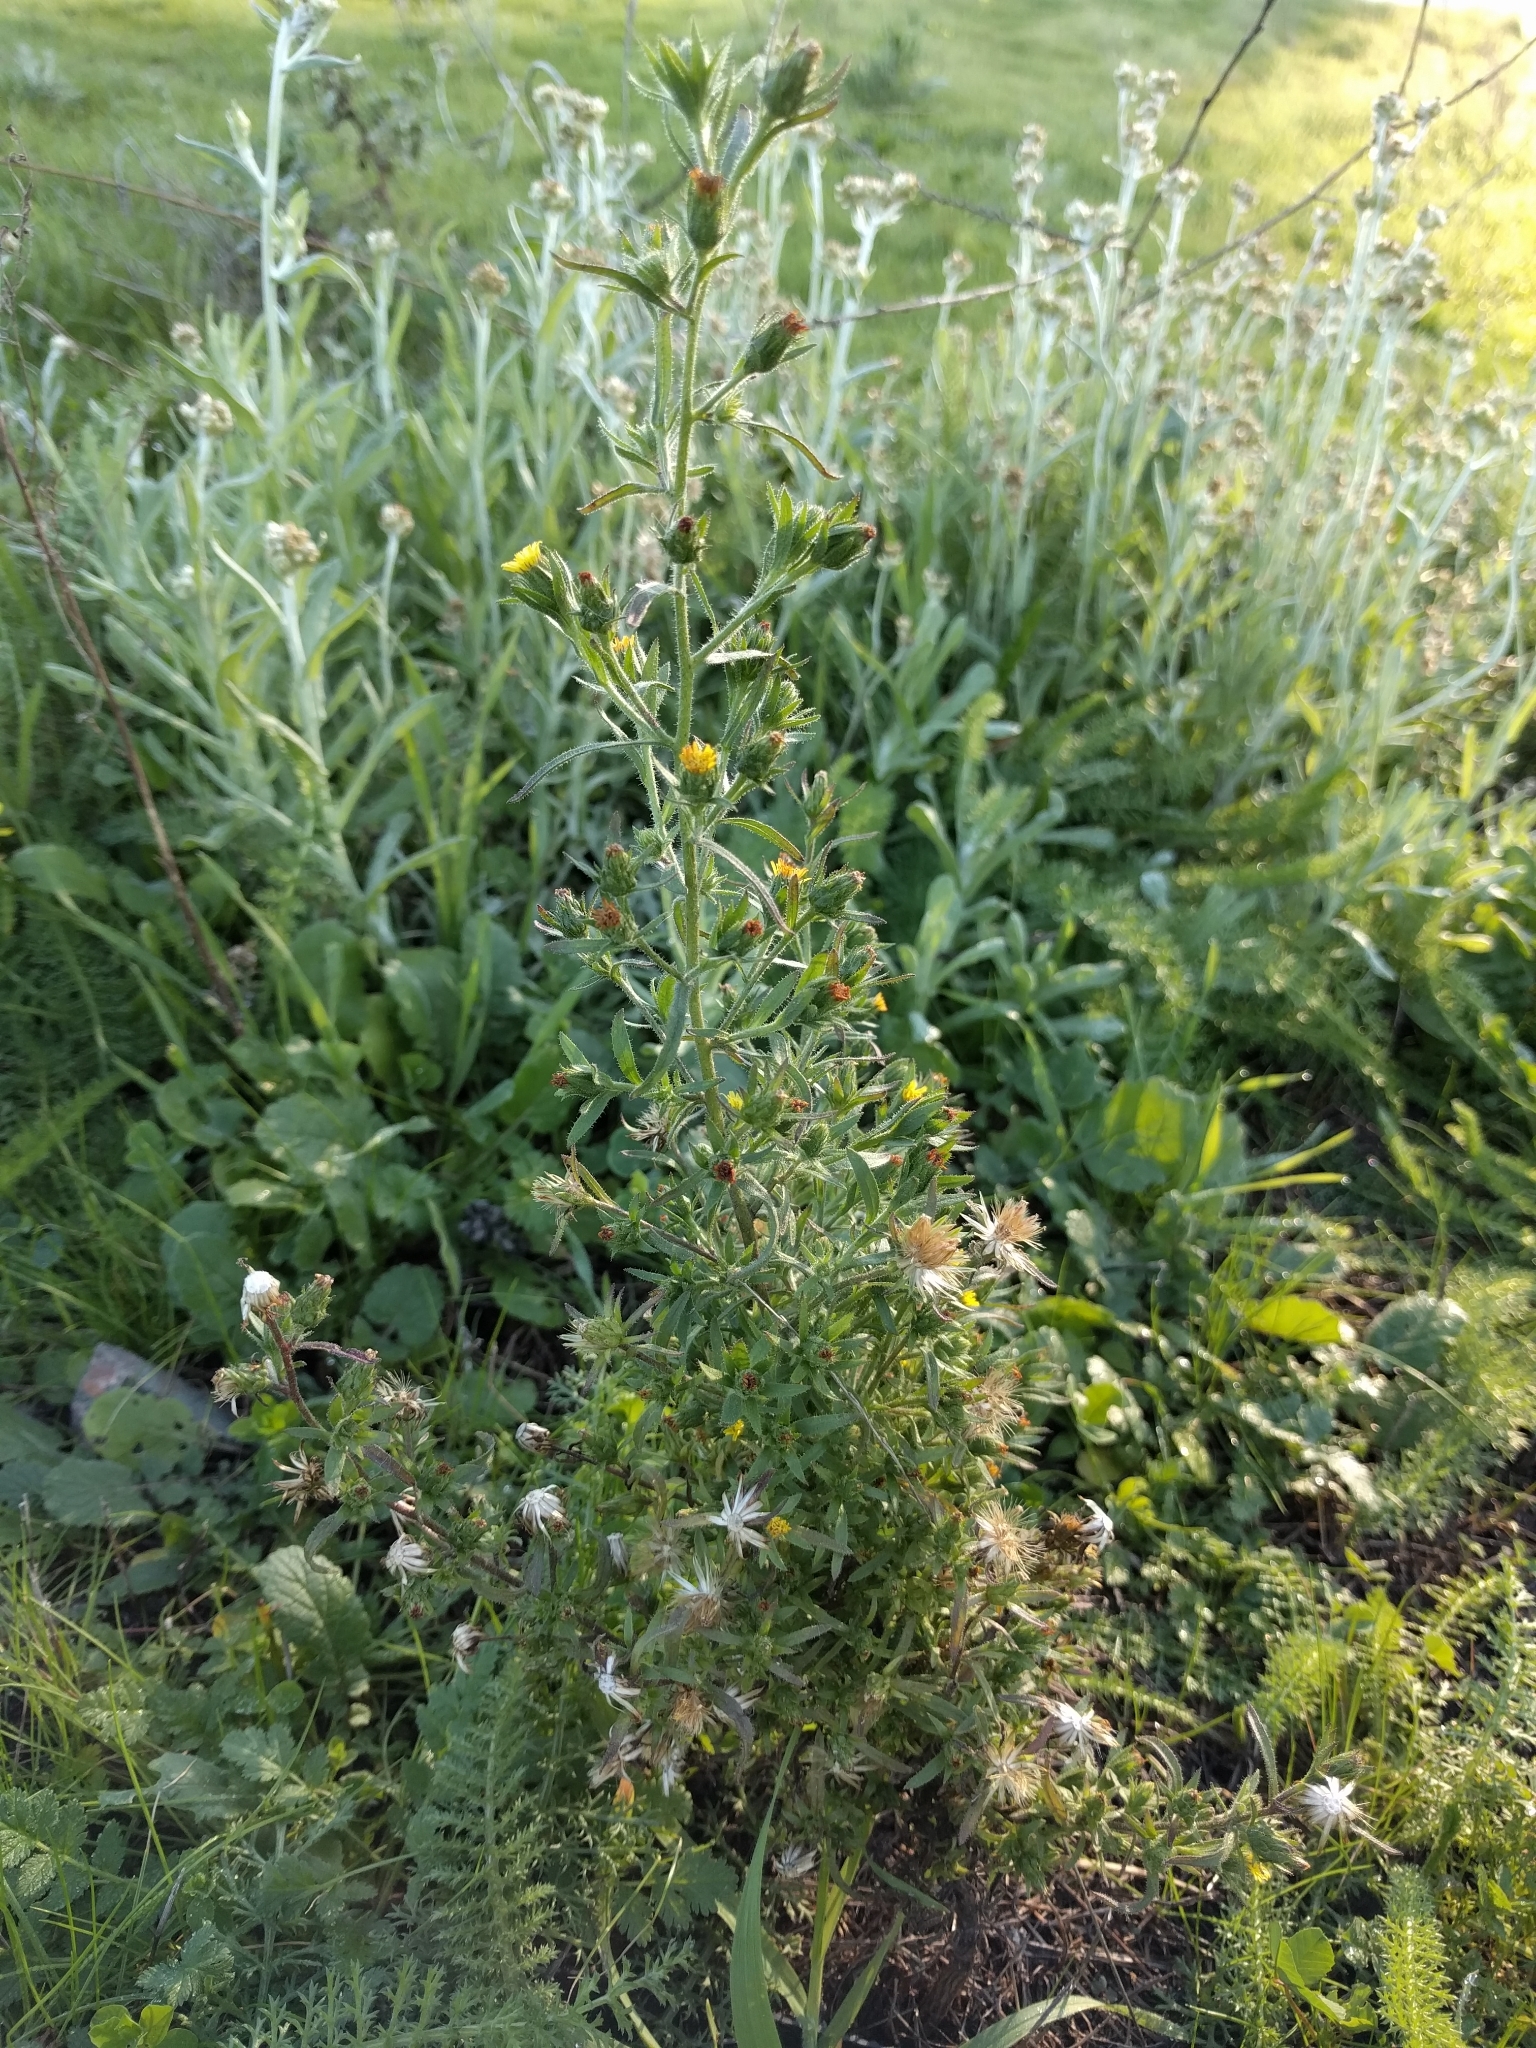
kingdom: Plantae
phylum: Tracheophyta
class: Magnoliopsida
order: Asterales
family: Asteraceae
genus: Dittrichia
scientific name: Dittrichia graveolens
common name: Stinking fleabane
